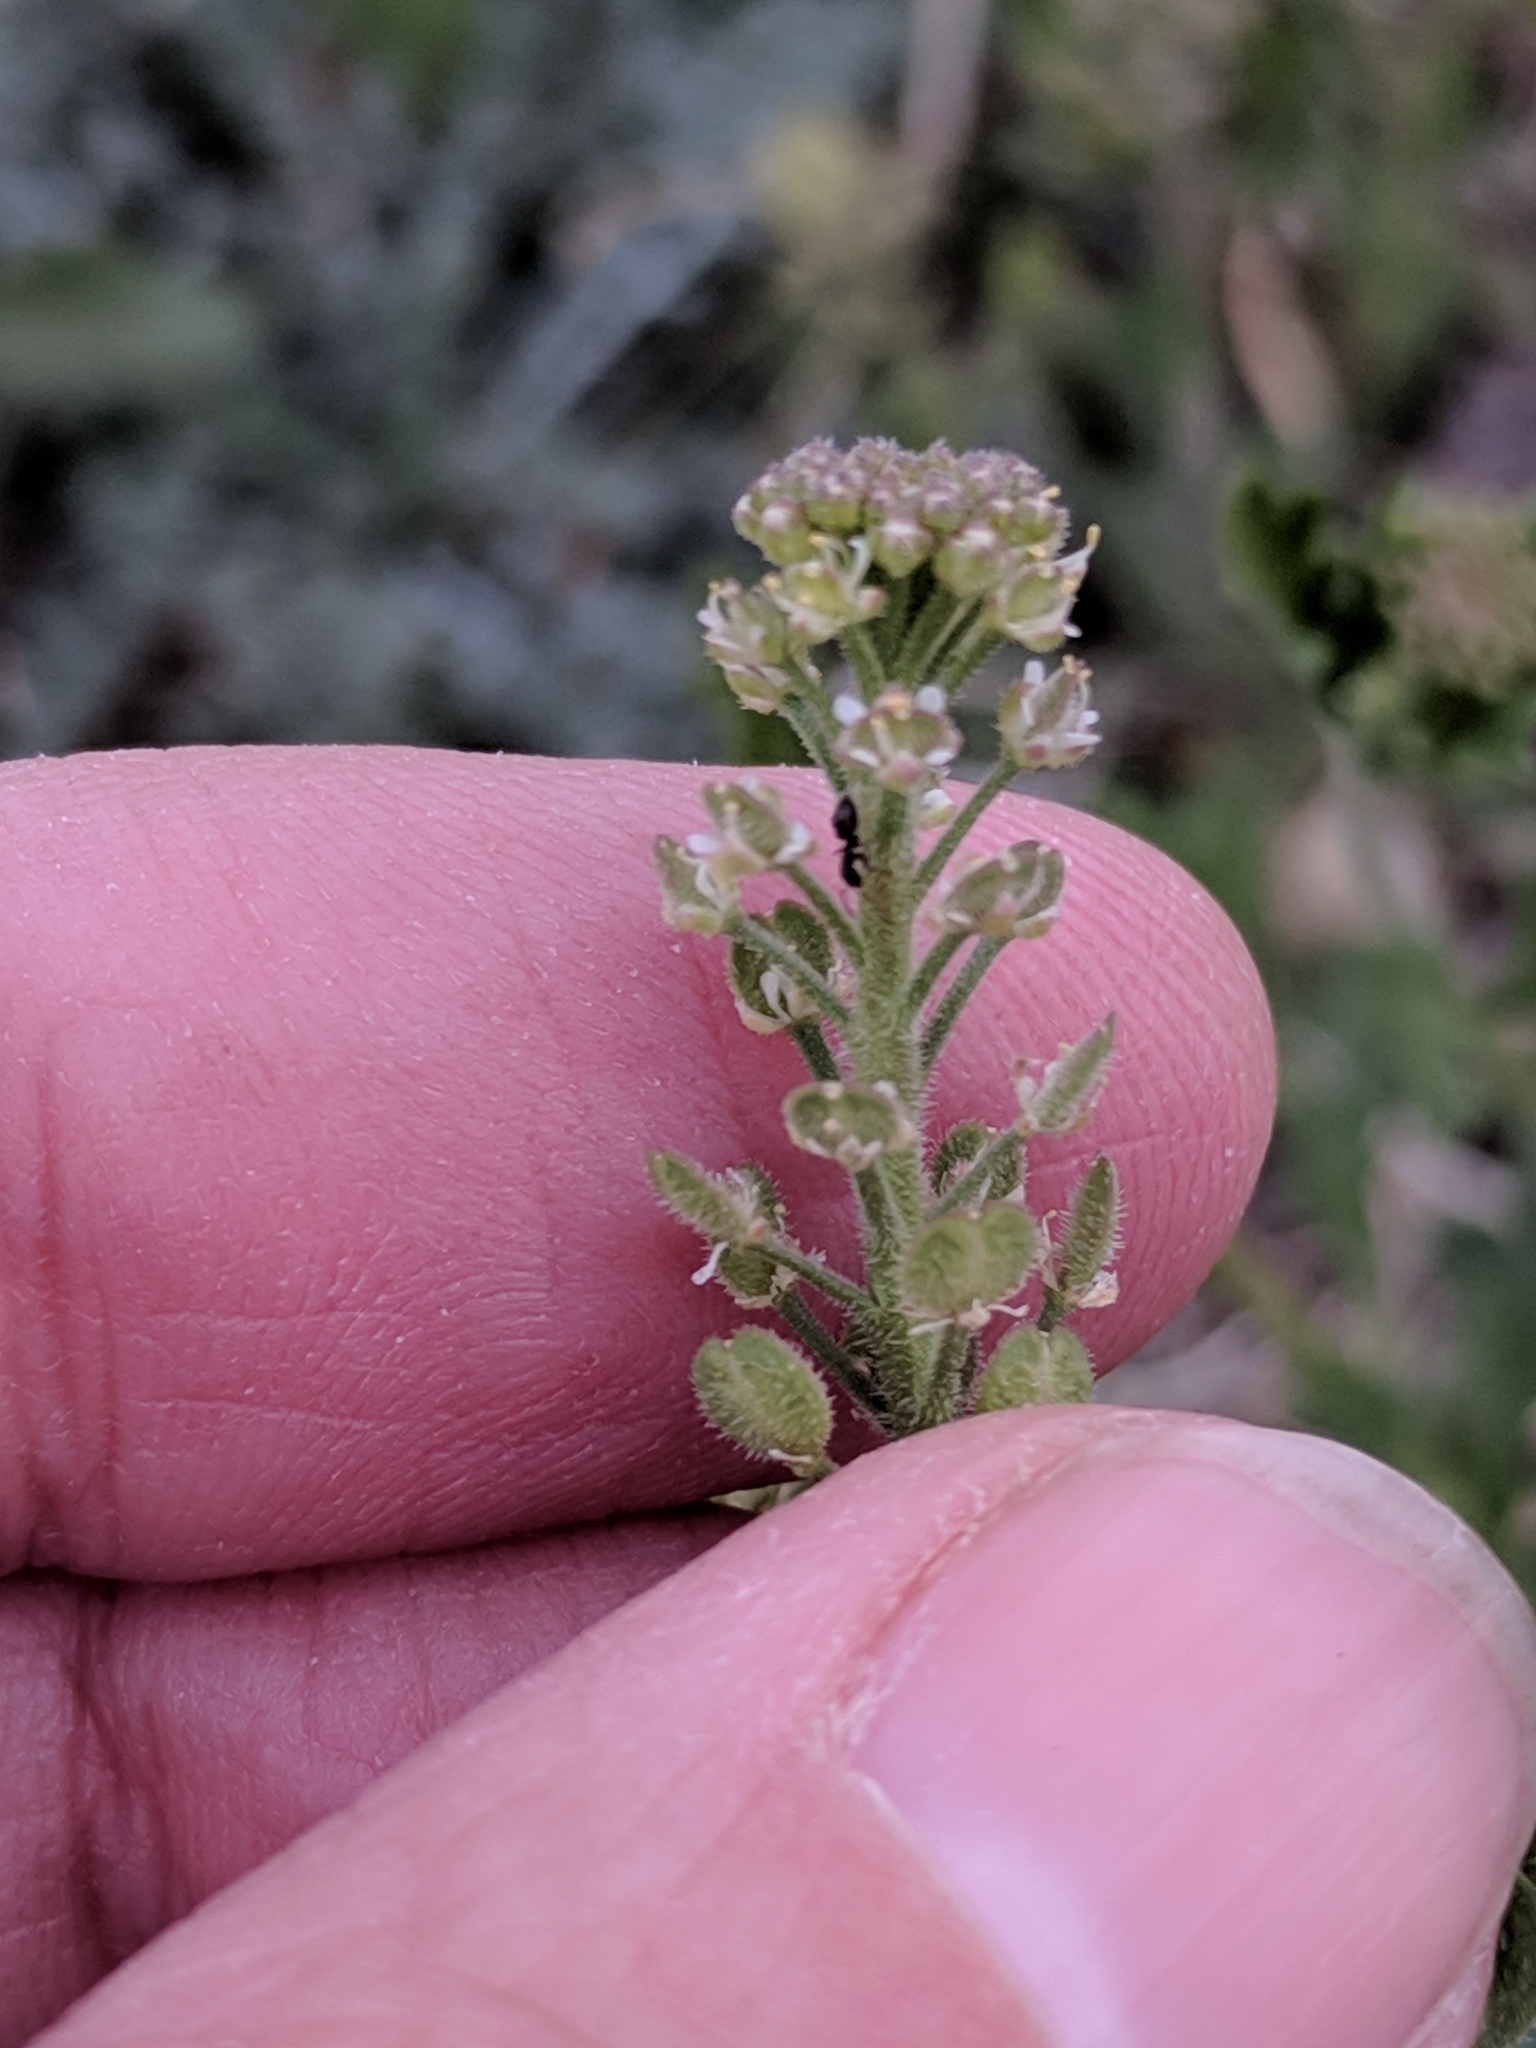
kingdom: Plantae
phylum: Tracheophyta
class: Magnoliopsida
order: Brassicales
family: Brassicaceae
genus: Lepidium
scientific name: Lepidium lasiocarpum
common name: Hairy-pod pepperwort
